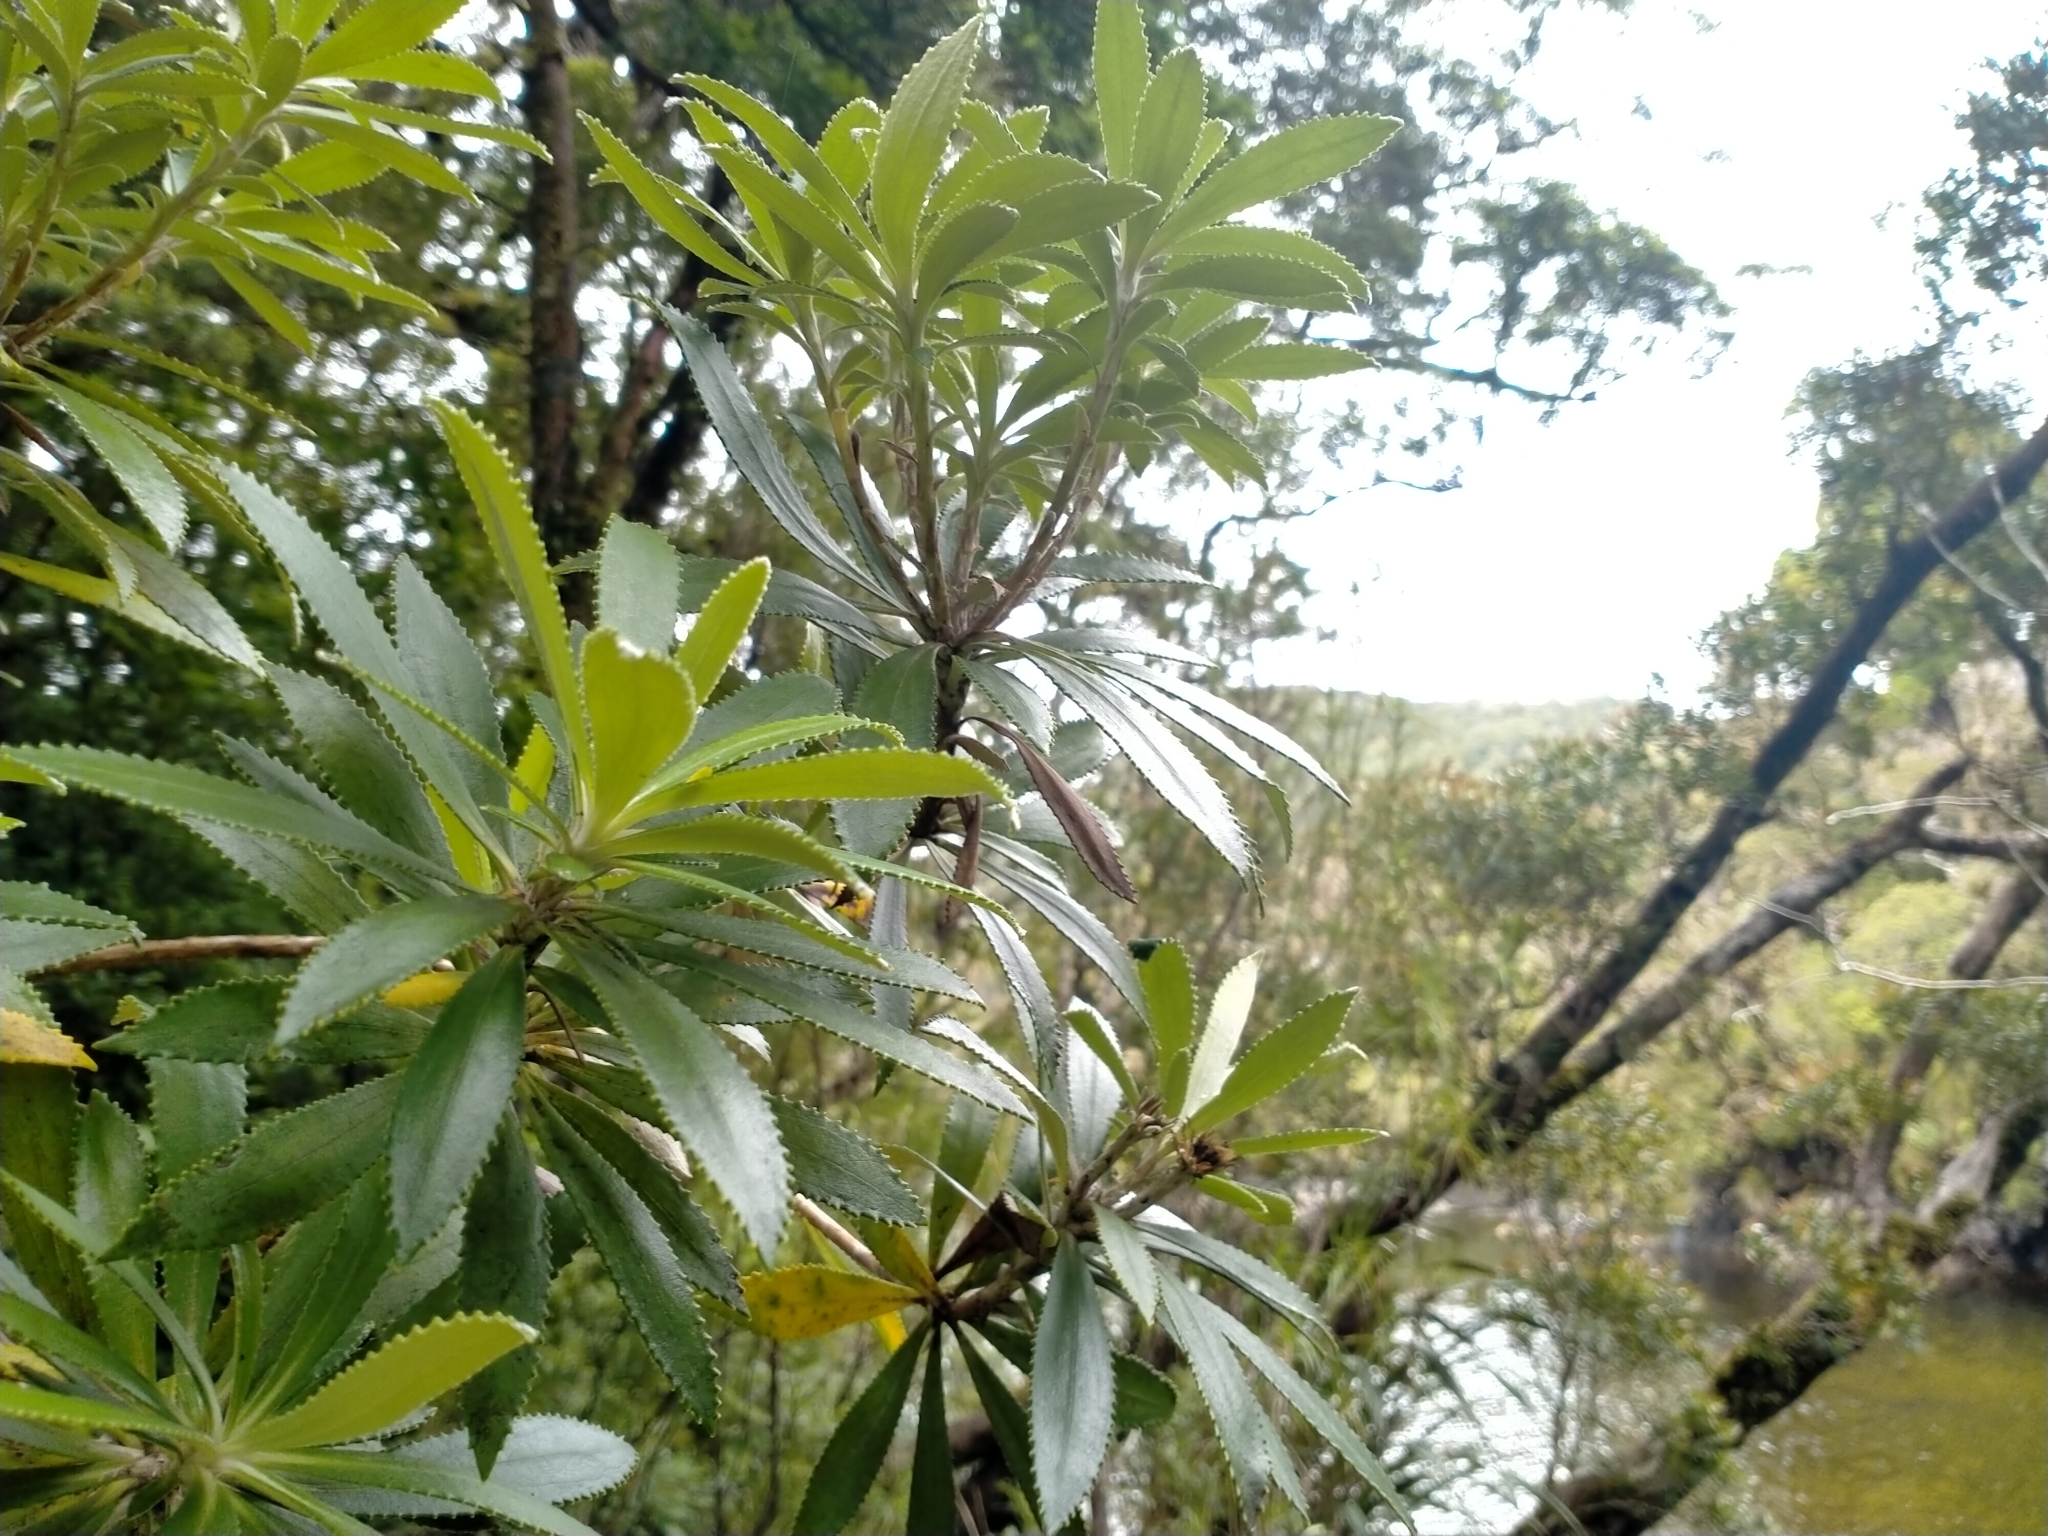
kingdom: Plantae
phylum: Tracheophyta
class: Magnoliopsida
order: Asterales
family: Asteraceae
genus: Macrolearia
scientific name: Macrolearia oporina
